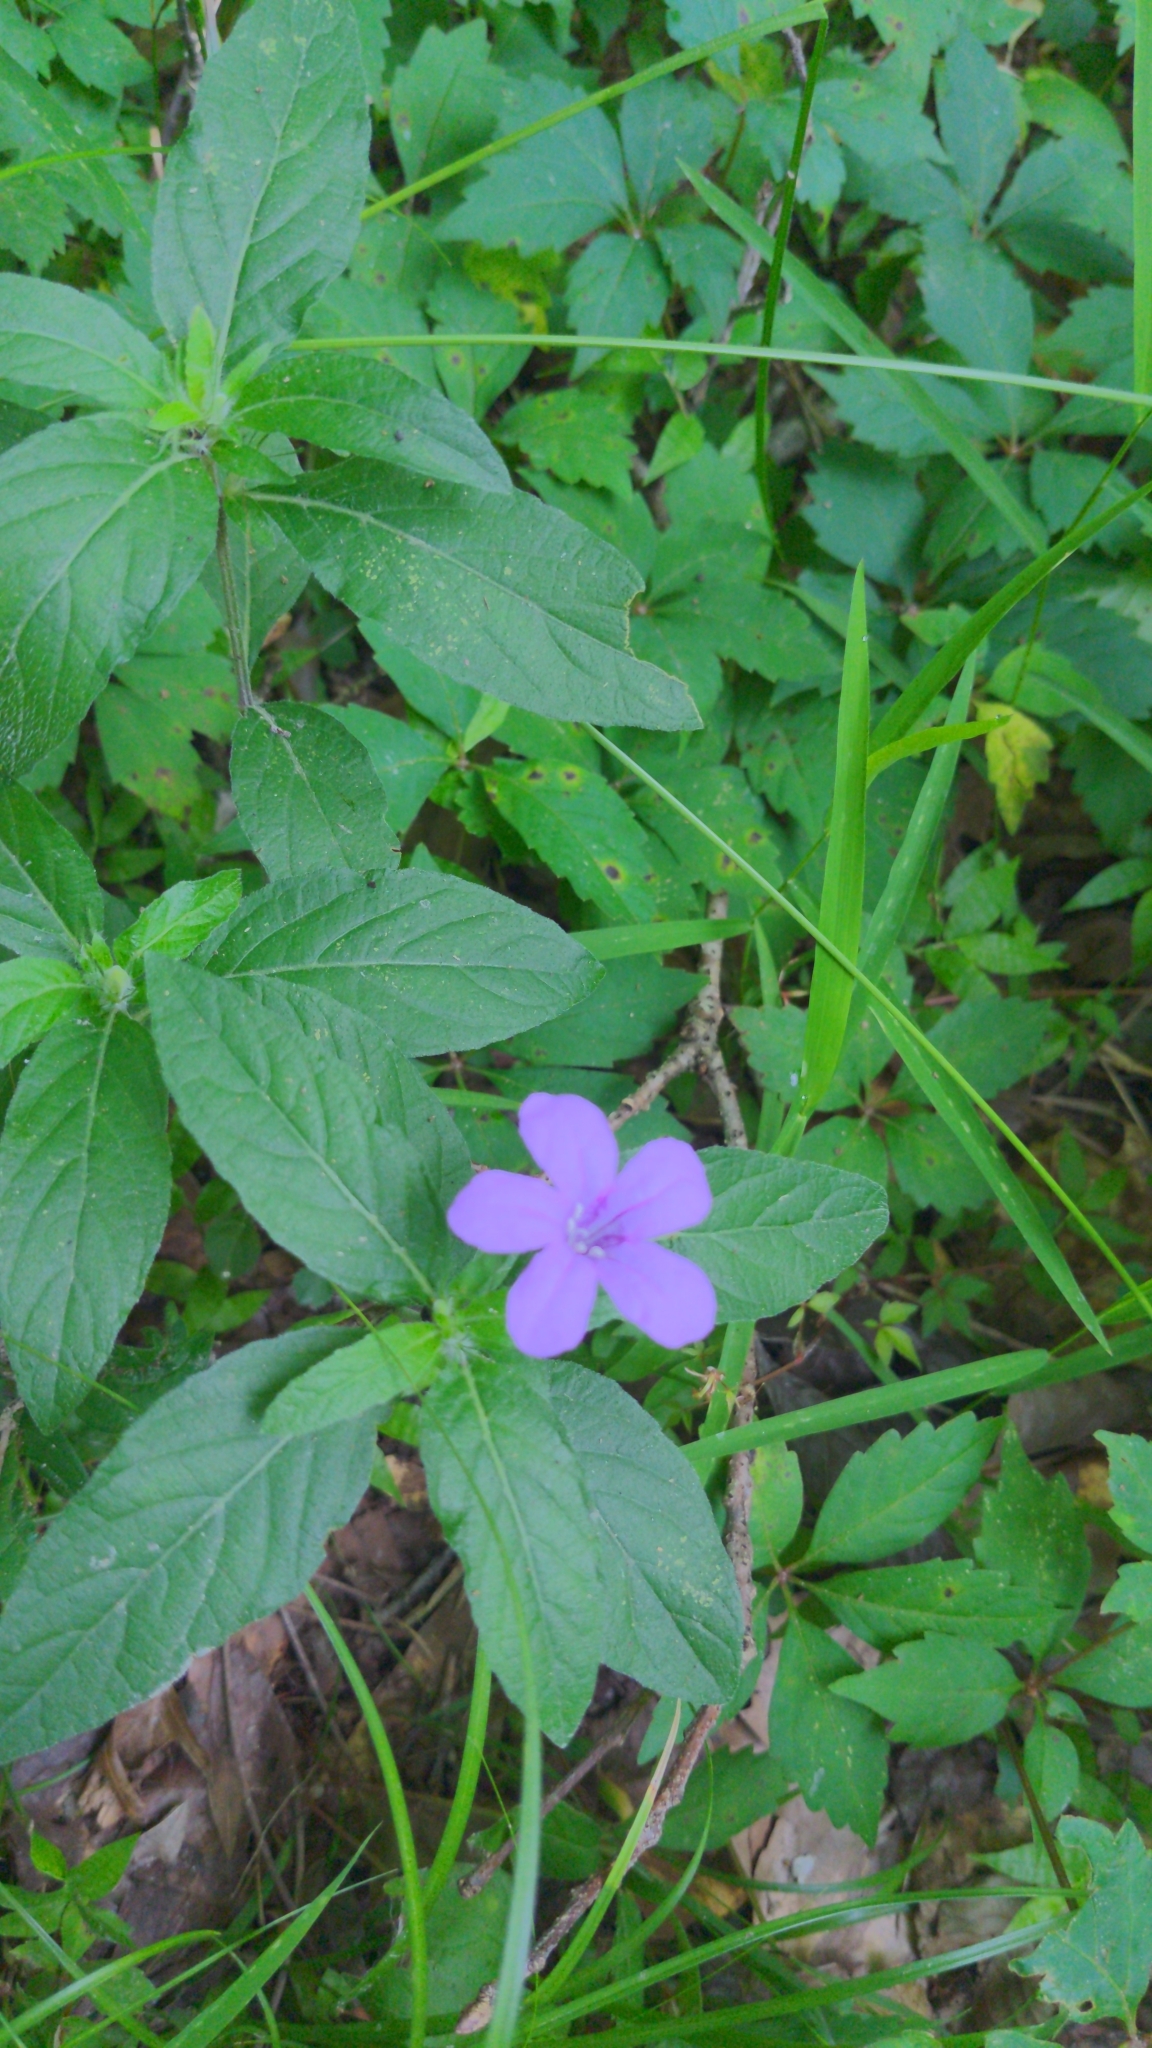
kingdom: Plantae
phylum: Tracheophyta
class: Magnoliopsida
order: Lamiales
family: Acanthaceae
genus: Ruellia
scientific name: Ruellia caroliniensis
